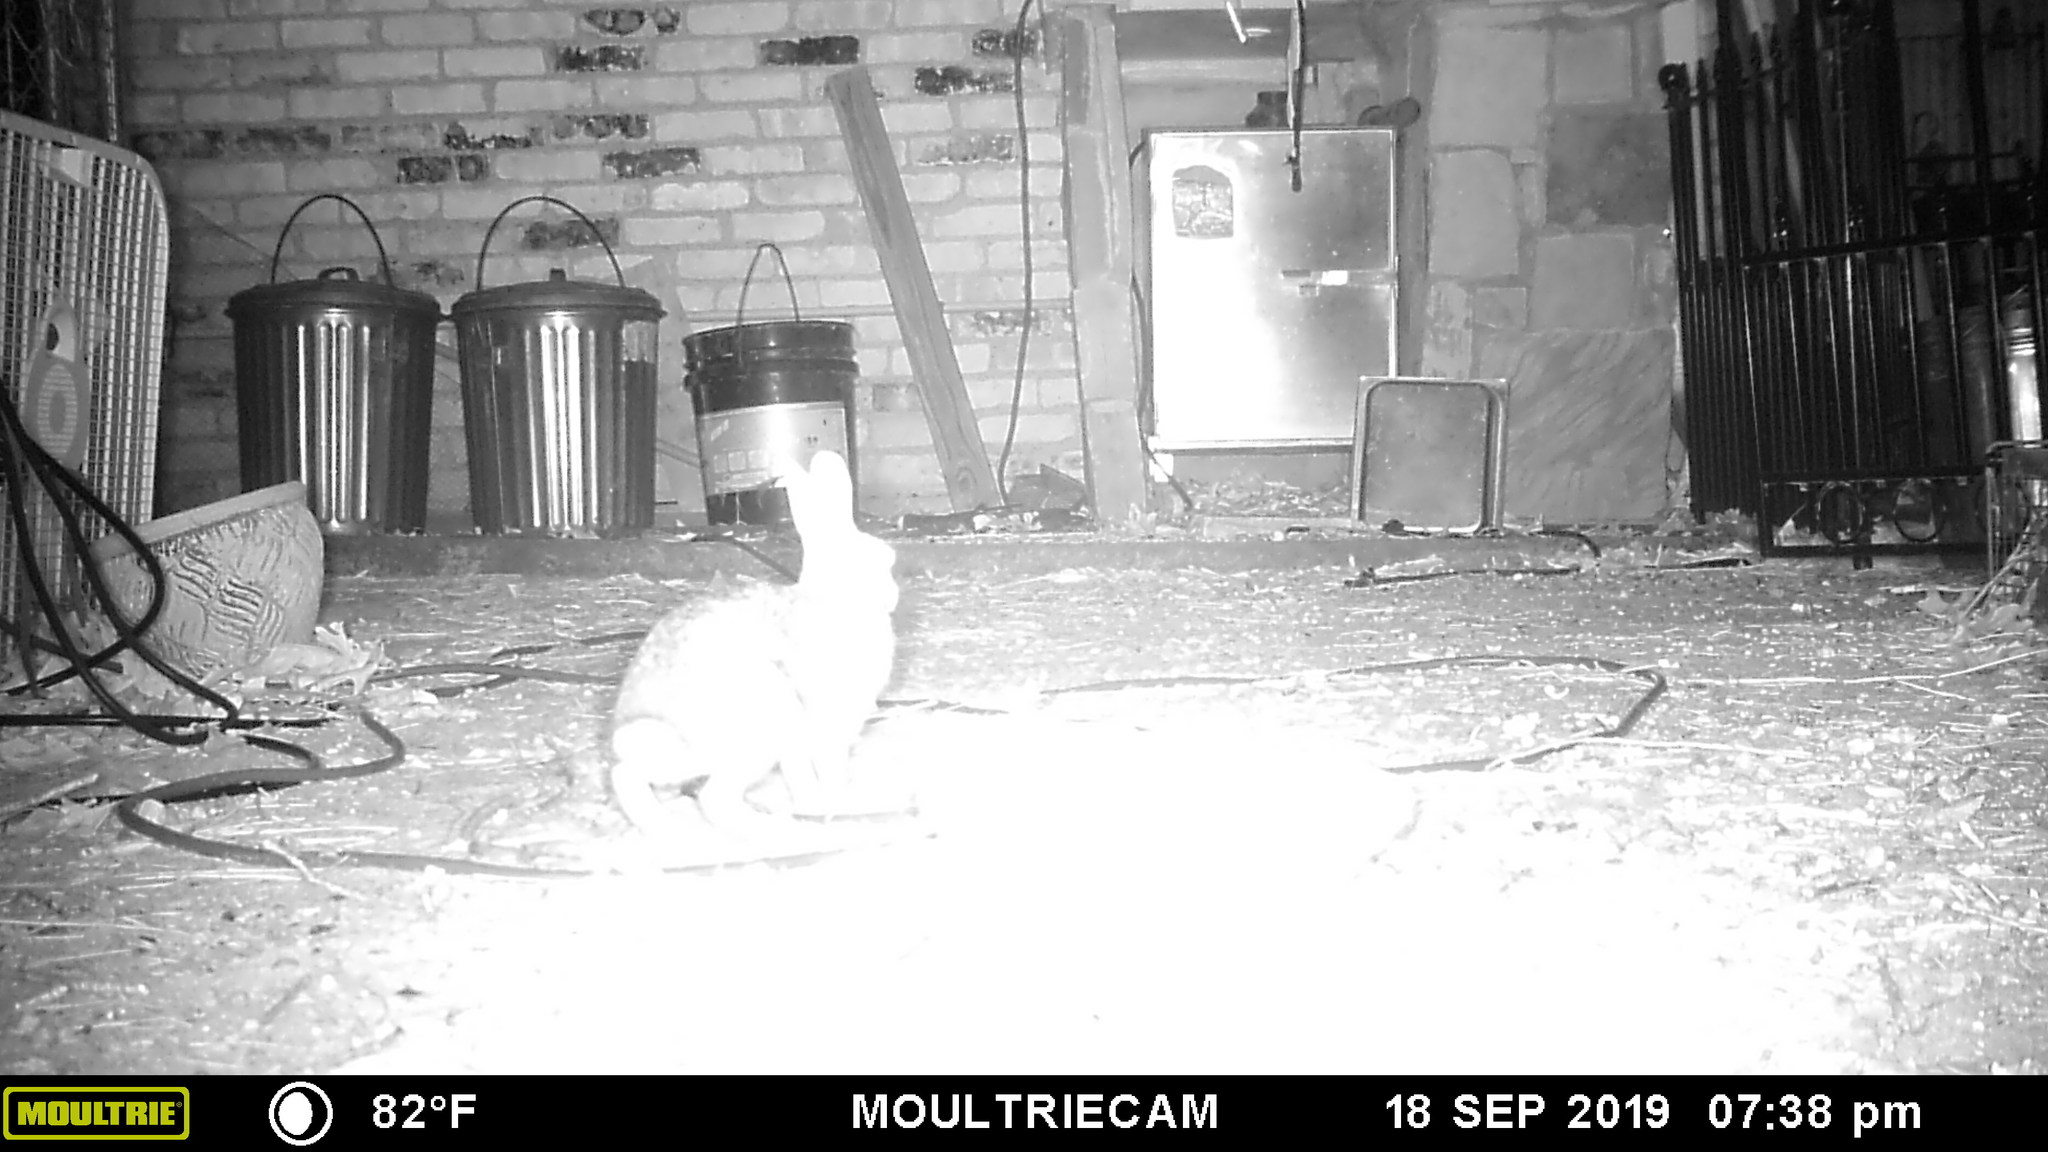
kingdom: Animalia
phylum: Chordata
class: Mammalia
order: Lagomorpha
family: Leporidae
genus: Sylvilagus
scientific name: Sylvilagus floridanus
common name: Eastern cottontail
